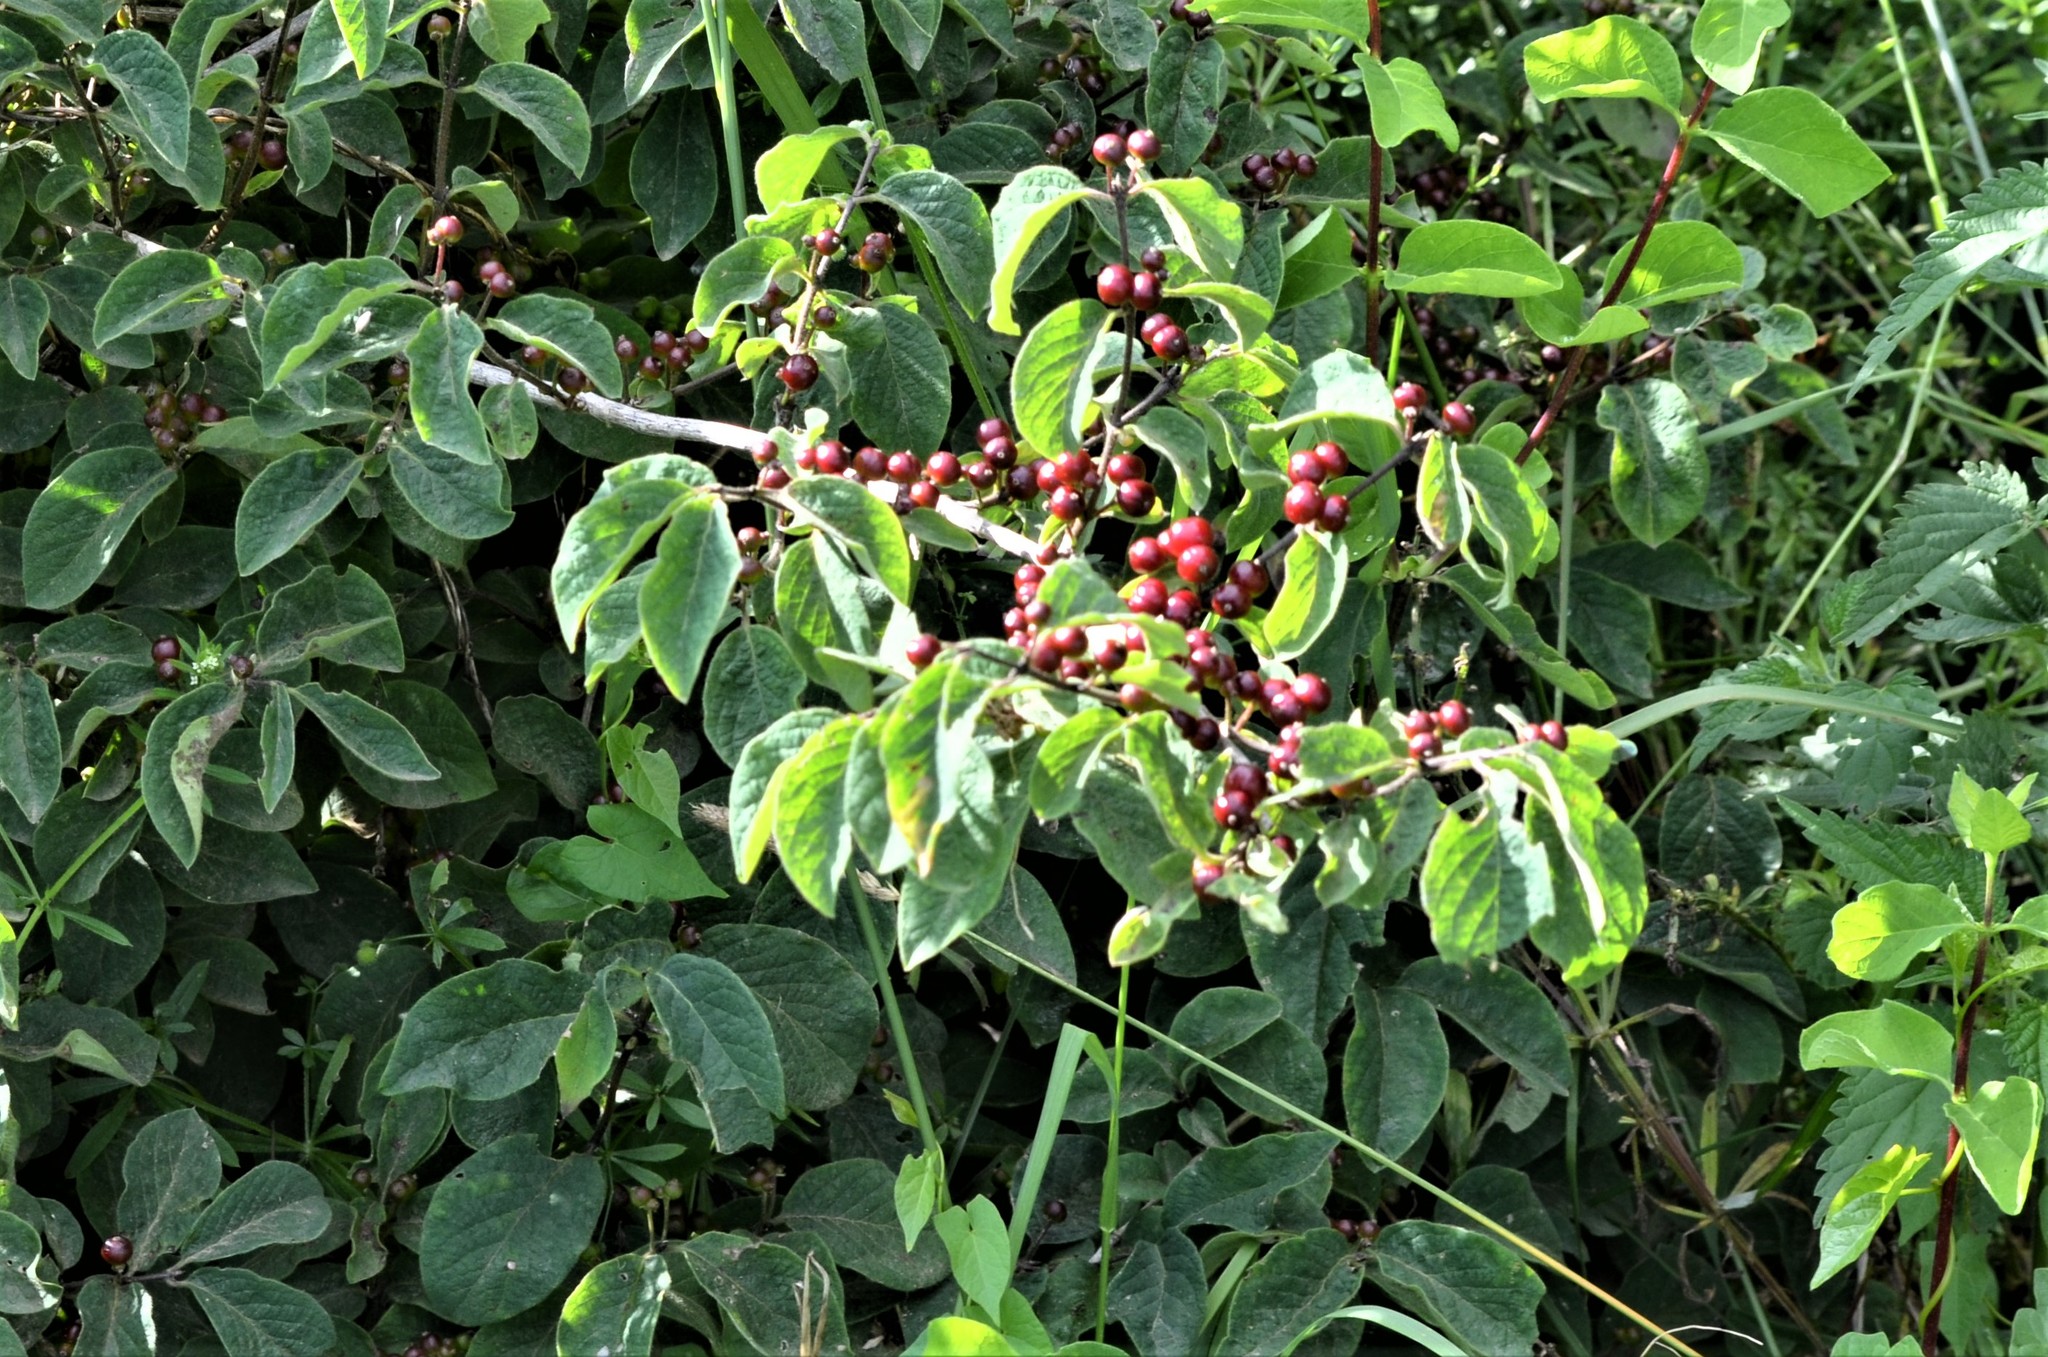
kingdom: Plantae
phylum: Tracheophyta
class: Magnoliopsida
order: Dipsacales
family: Caprifoliaceae
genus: Lonicera
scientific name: Lonicera xylosteum
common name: Fly honeysuckle
